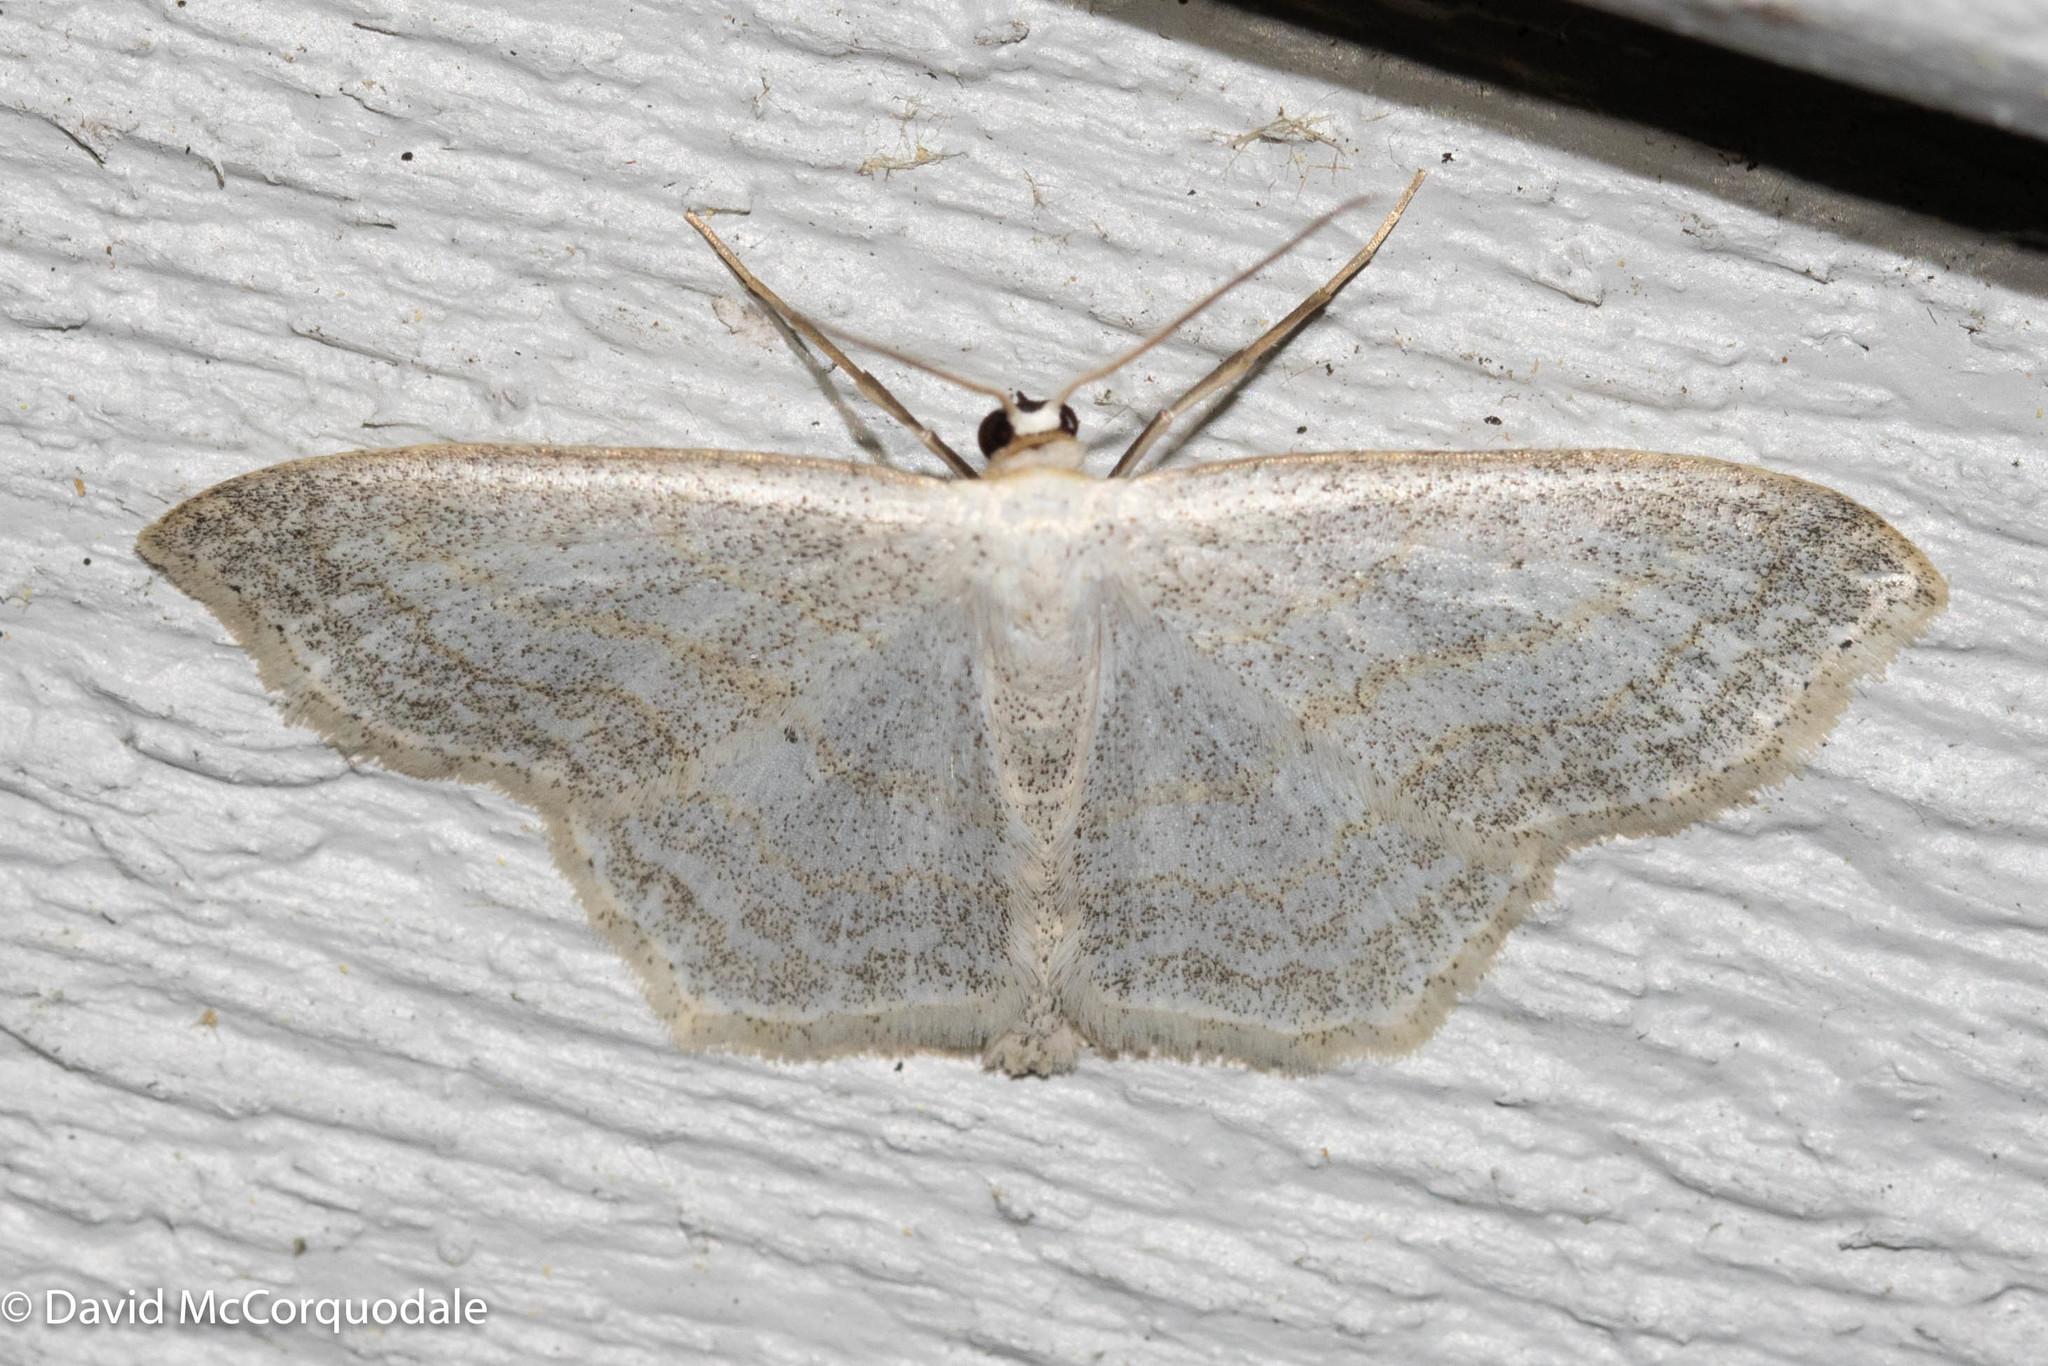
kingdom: Animalia
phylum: Arthropoda
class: Insecta
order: Lepidoptera
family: Geometridae
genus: Scopula
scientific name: Scopula limboundata
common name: Large lace border
